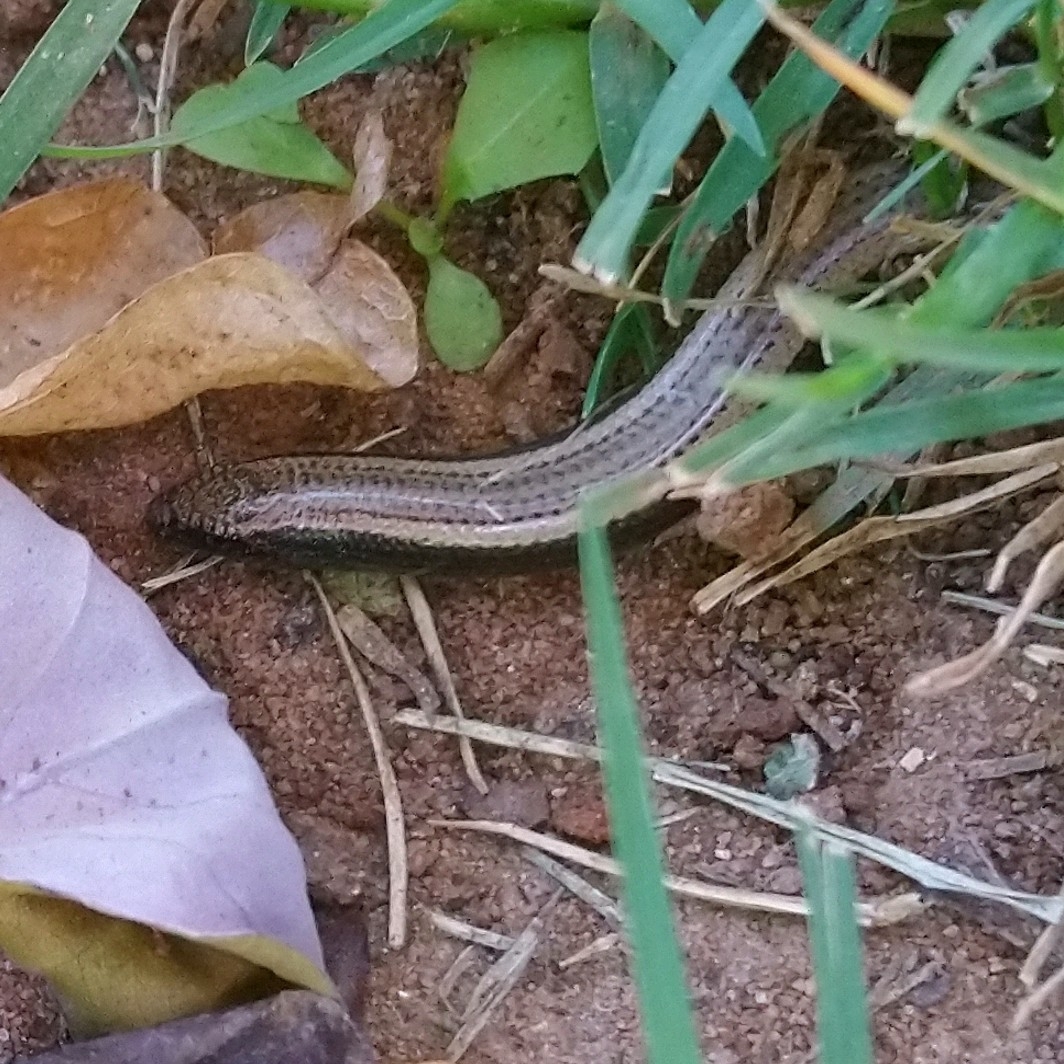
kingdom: Animalia
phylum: Chordata
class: Squamata
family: Scincidae
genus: Scelotes
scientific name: Scelotes anguineus
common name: Algoa dwarf burrowing skink
